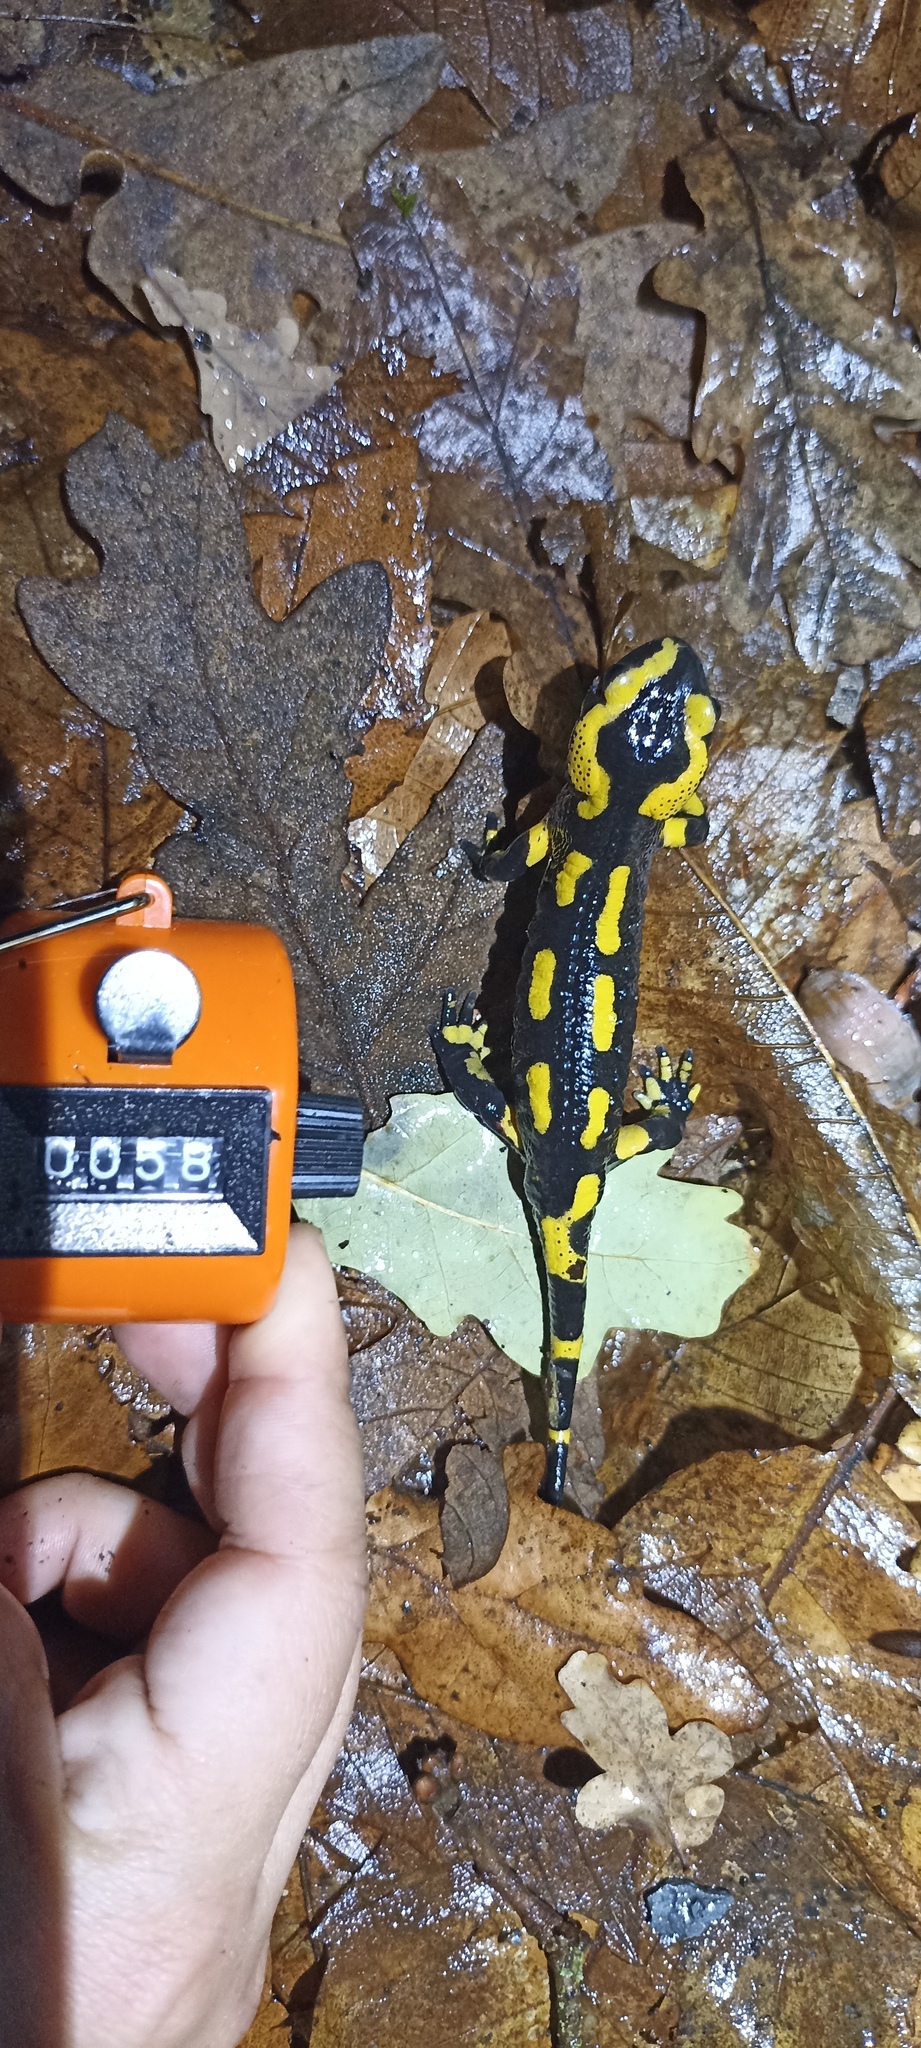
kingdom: Animalia
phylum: Chordata
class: Amphibia
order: Caudata
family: Salamandridae
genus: Salamandra
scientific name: Salamandra salamandra
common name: Fire salamander
